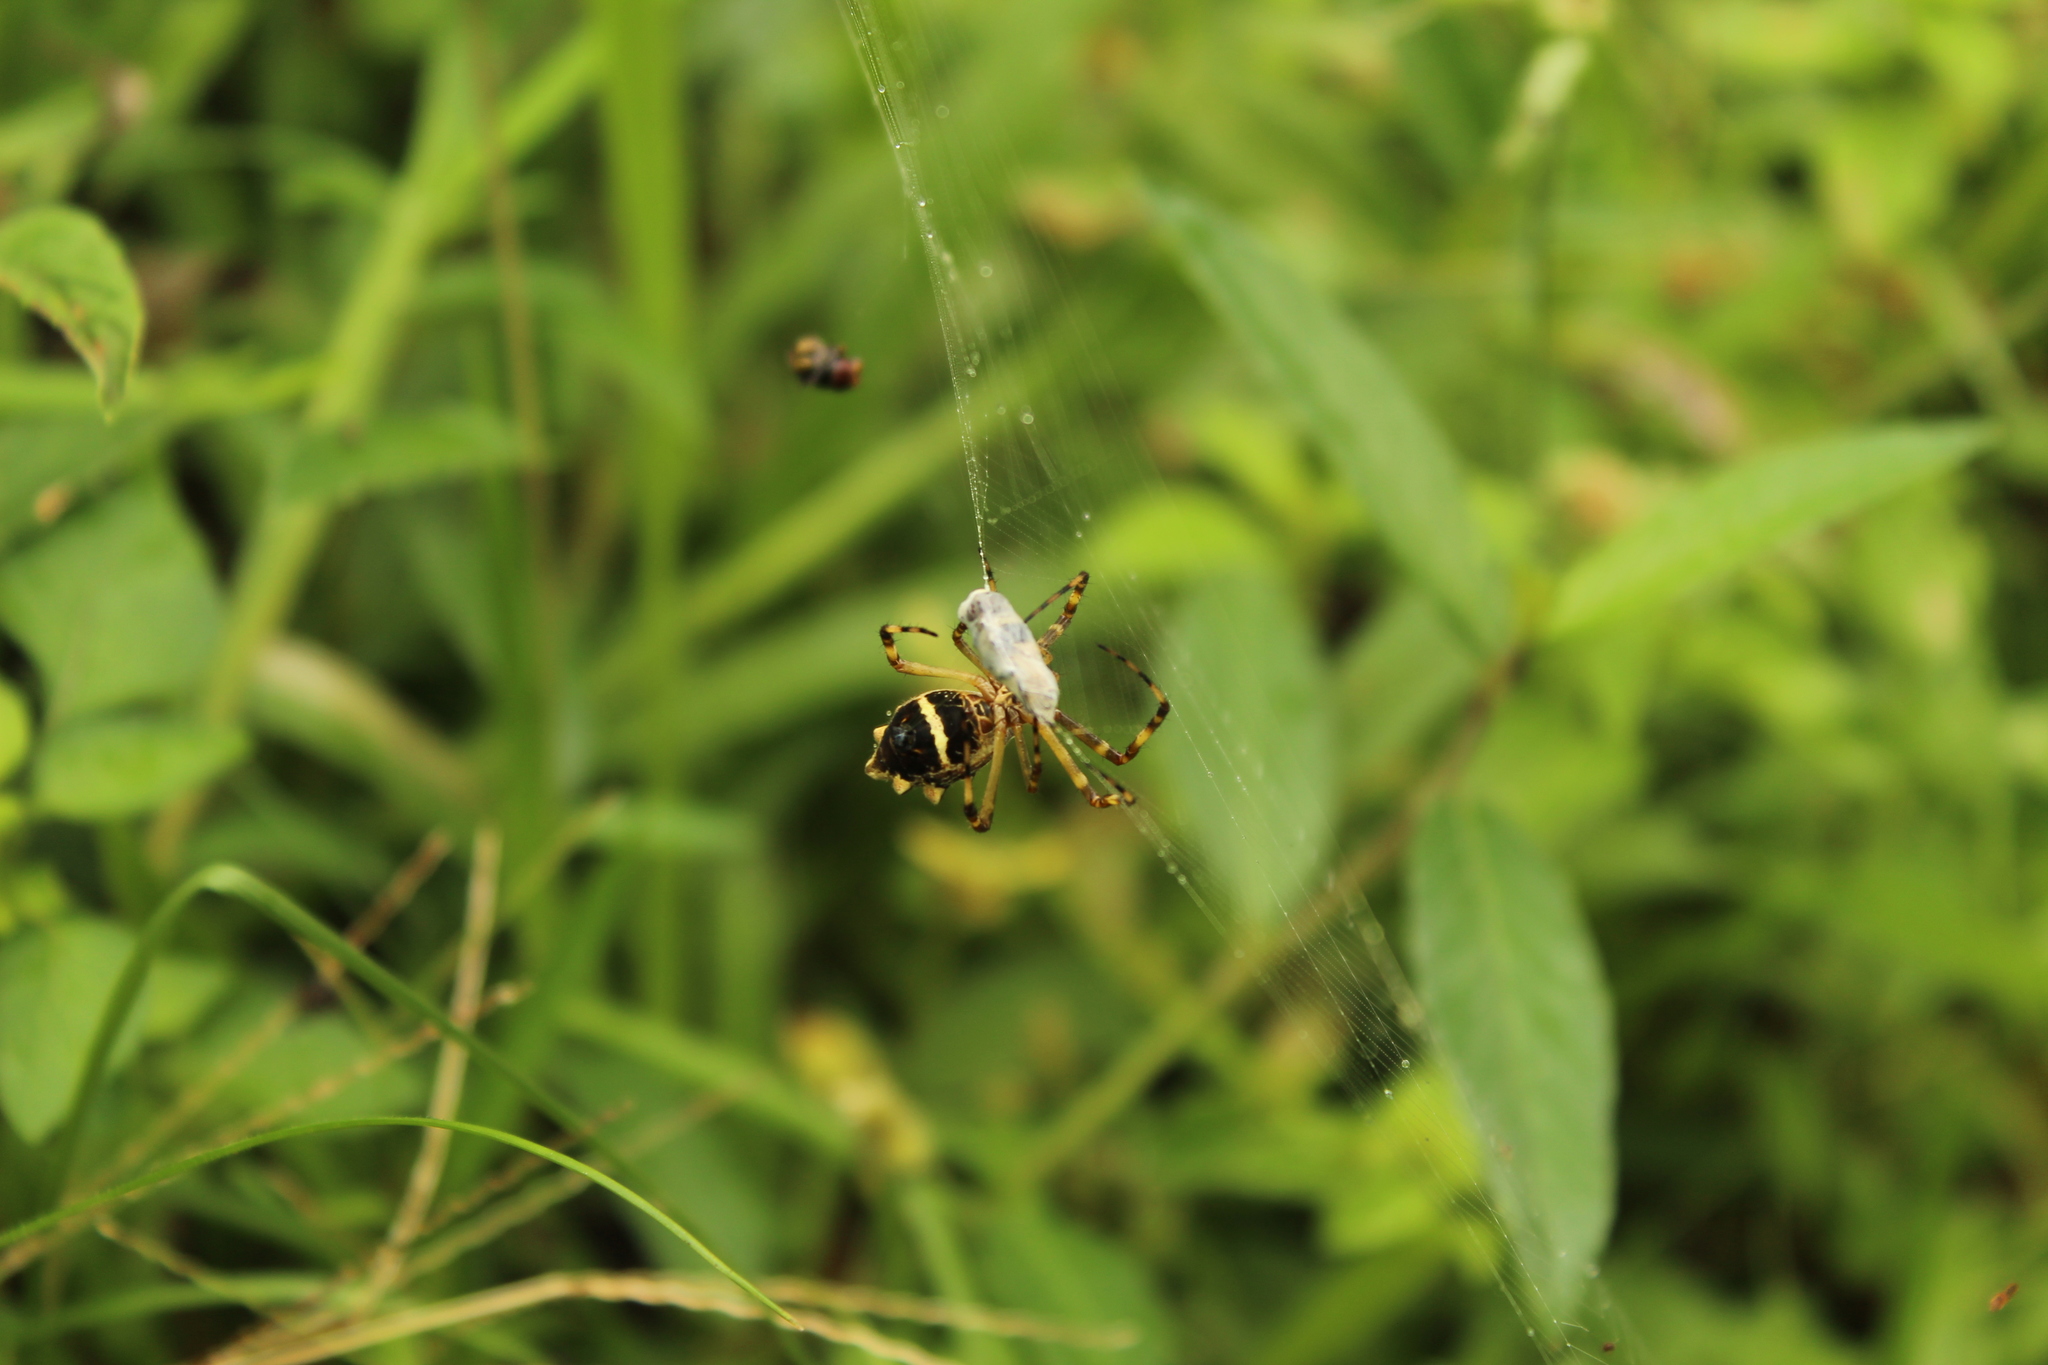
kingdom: Animalia
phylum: Arthropoda
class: Arachnida
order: Araneae
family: Araneidae
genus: Argiope
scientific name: Argiope argentata
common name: Orb weavers
